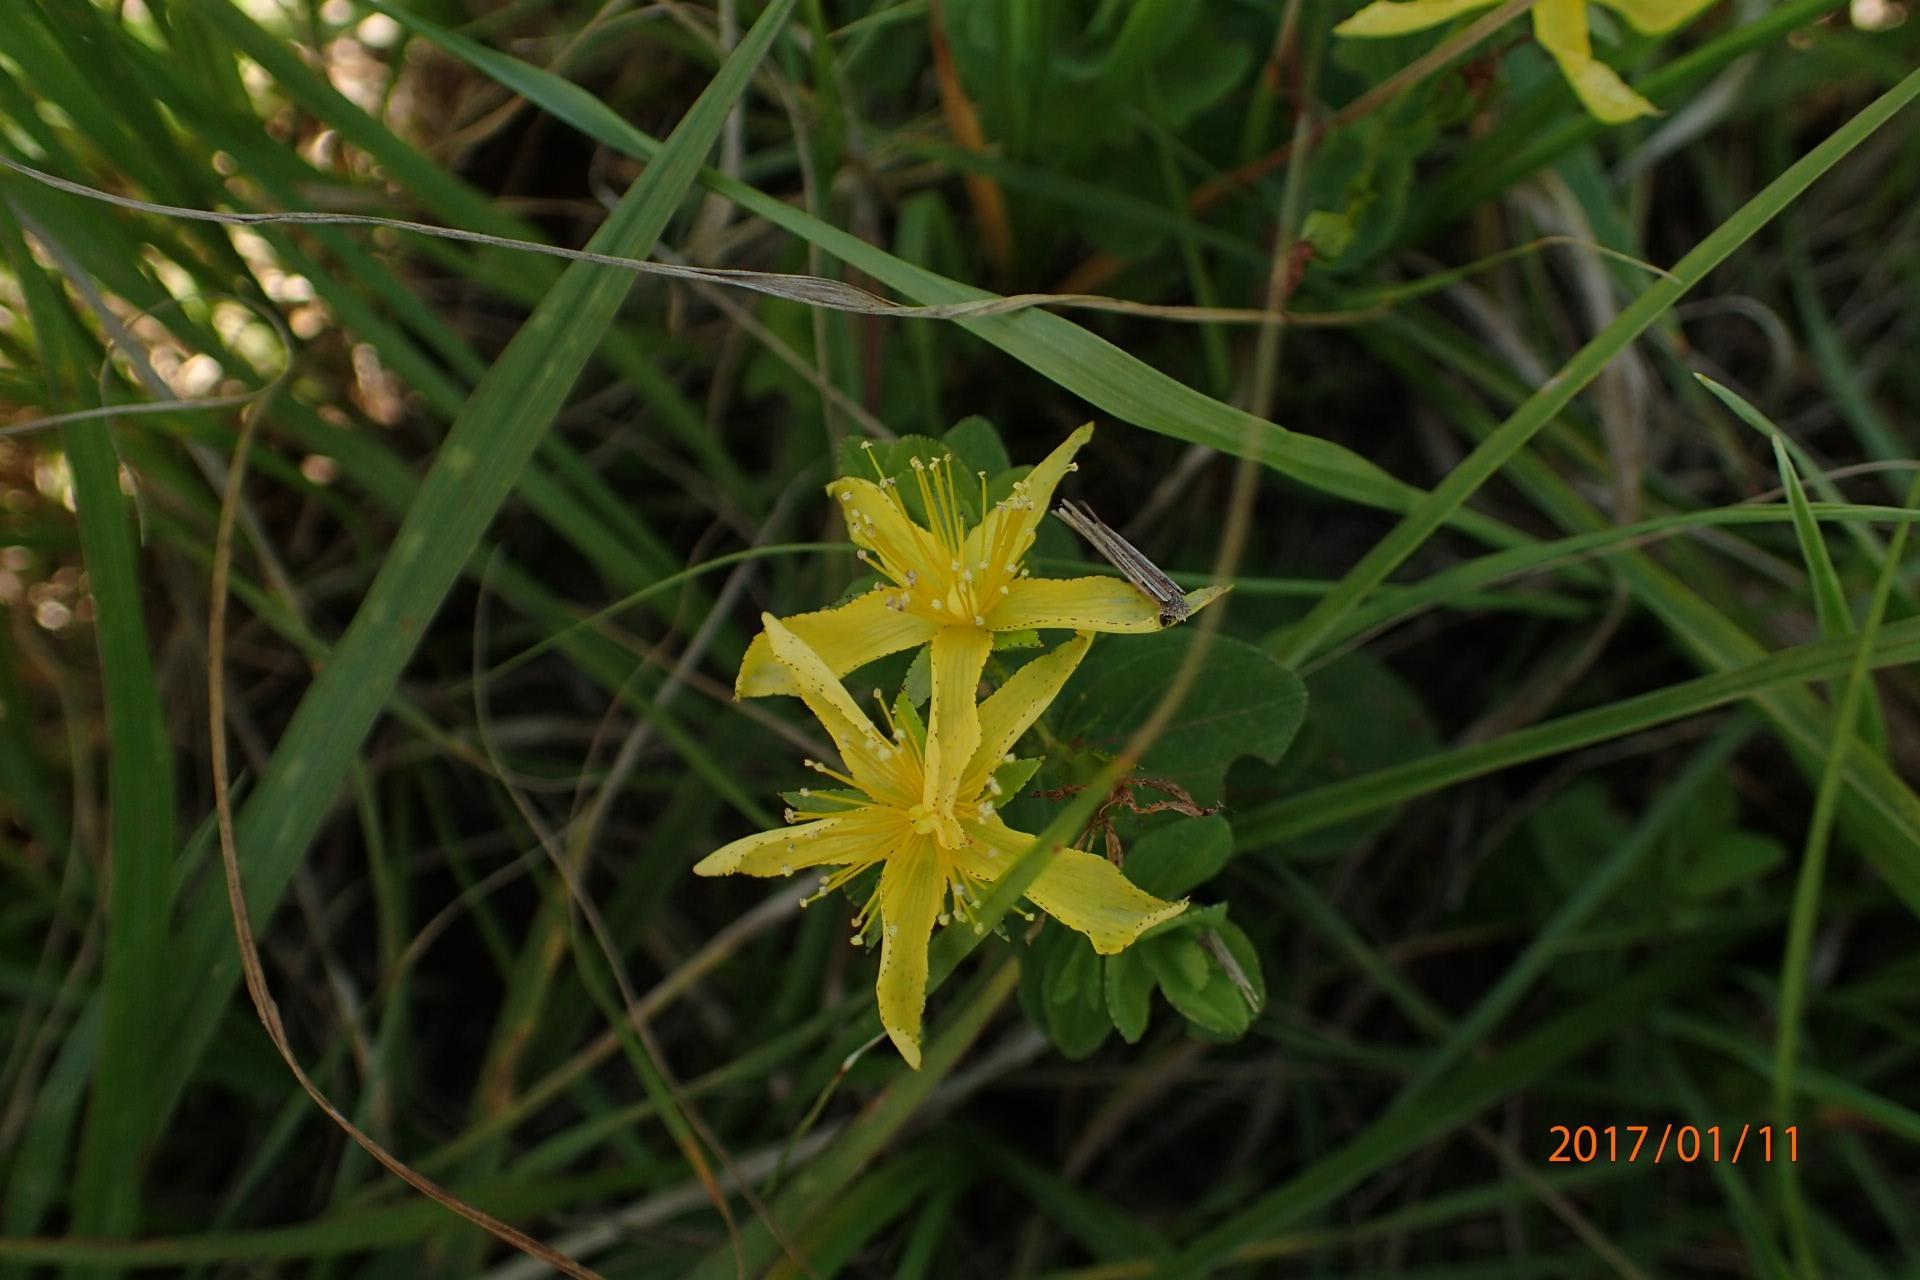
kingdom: Plantae
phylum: Tracheophyta
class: Magnoliopsida
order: Malpighiales
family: Hypericaceae
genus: Hypericum
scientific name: Hypericum aethiopicum
